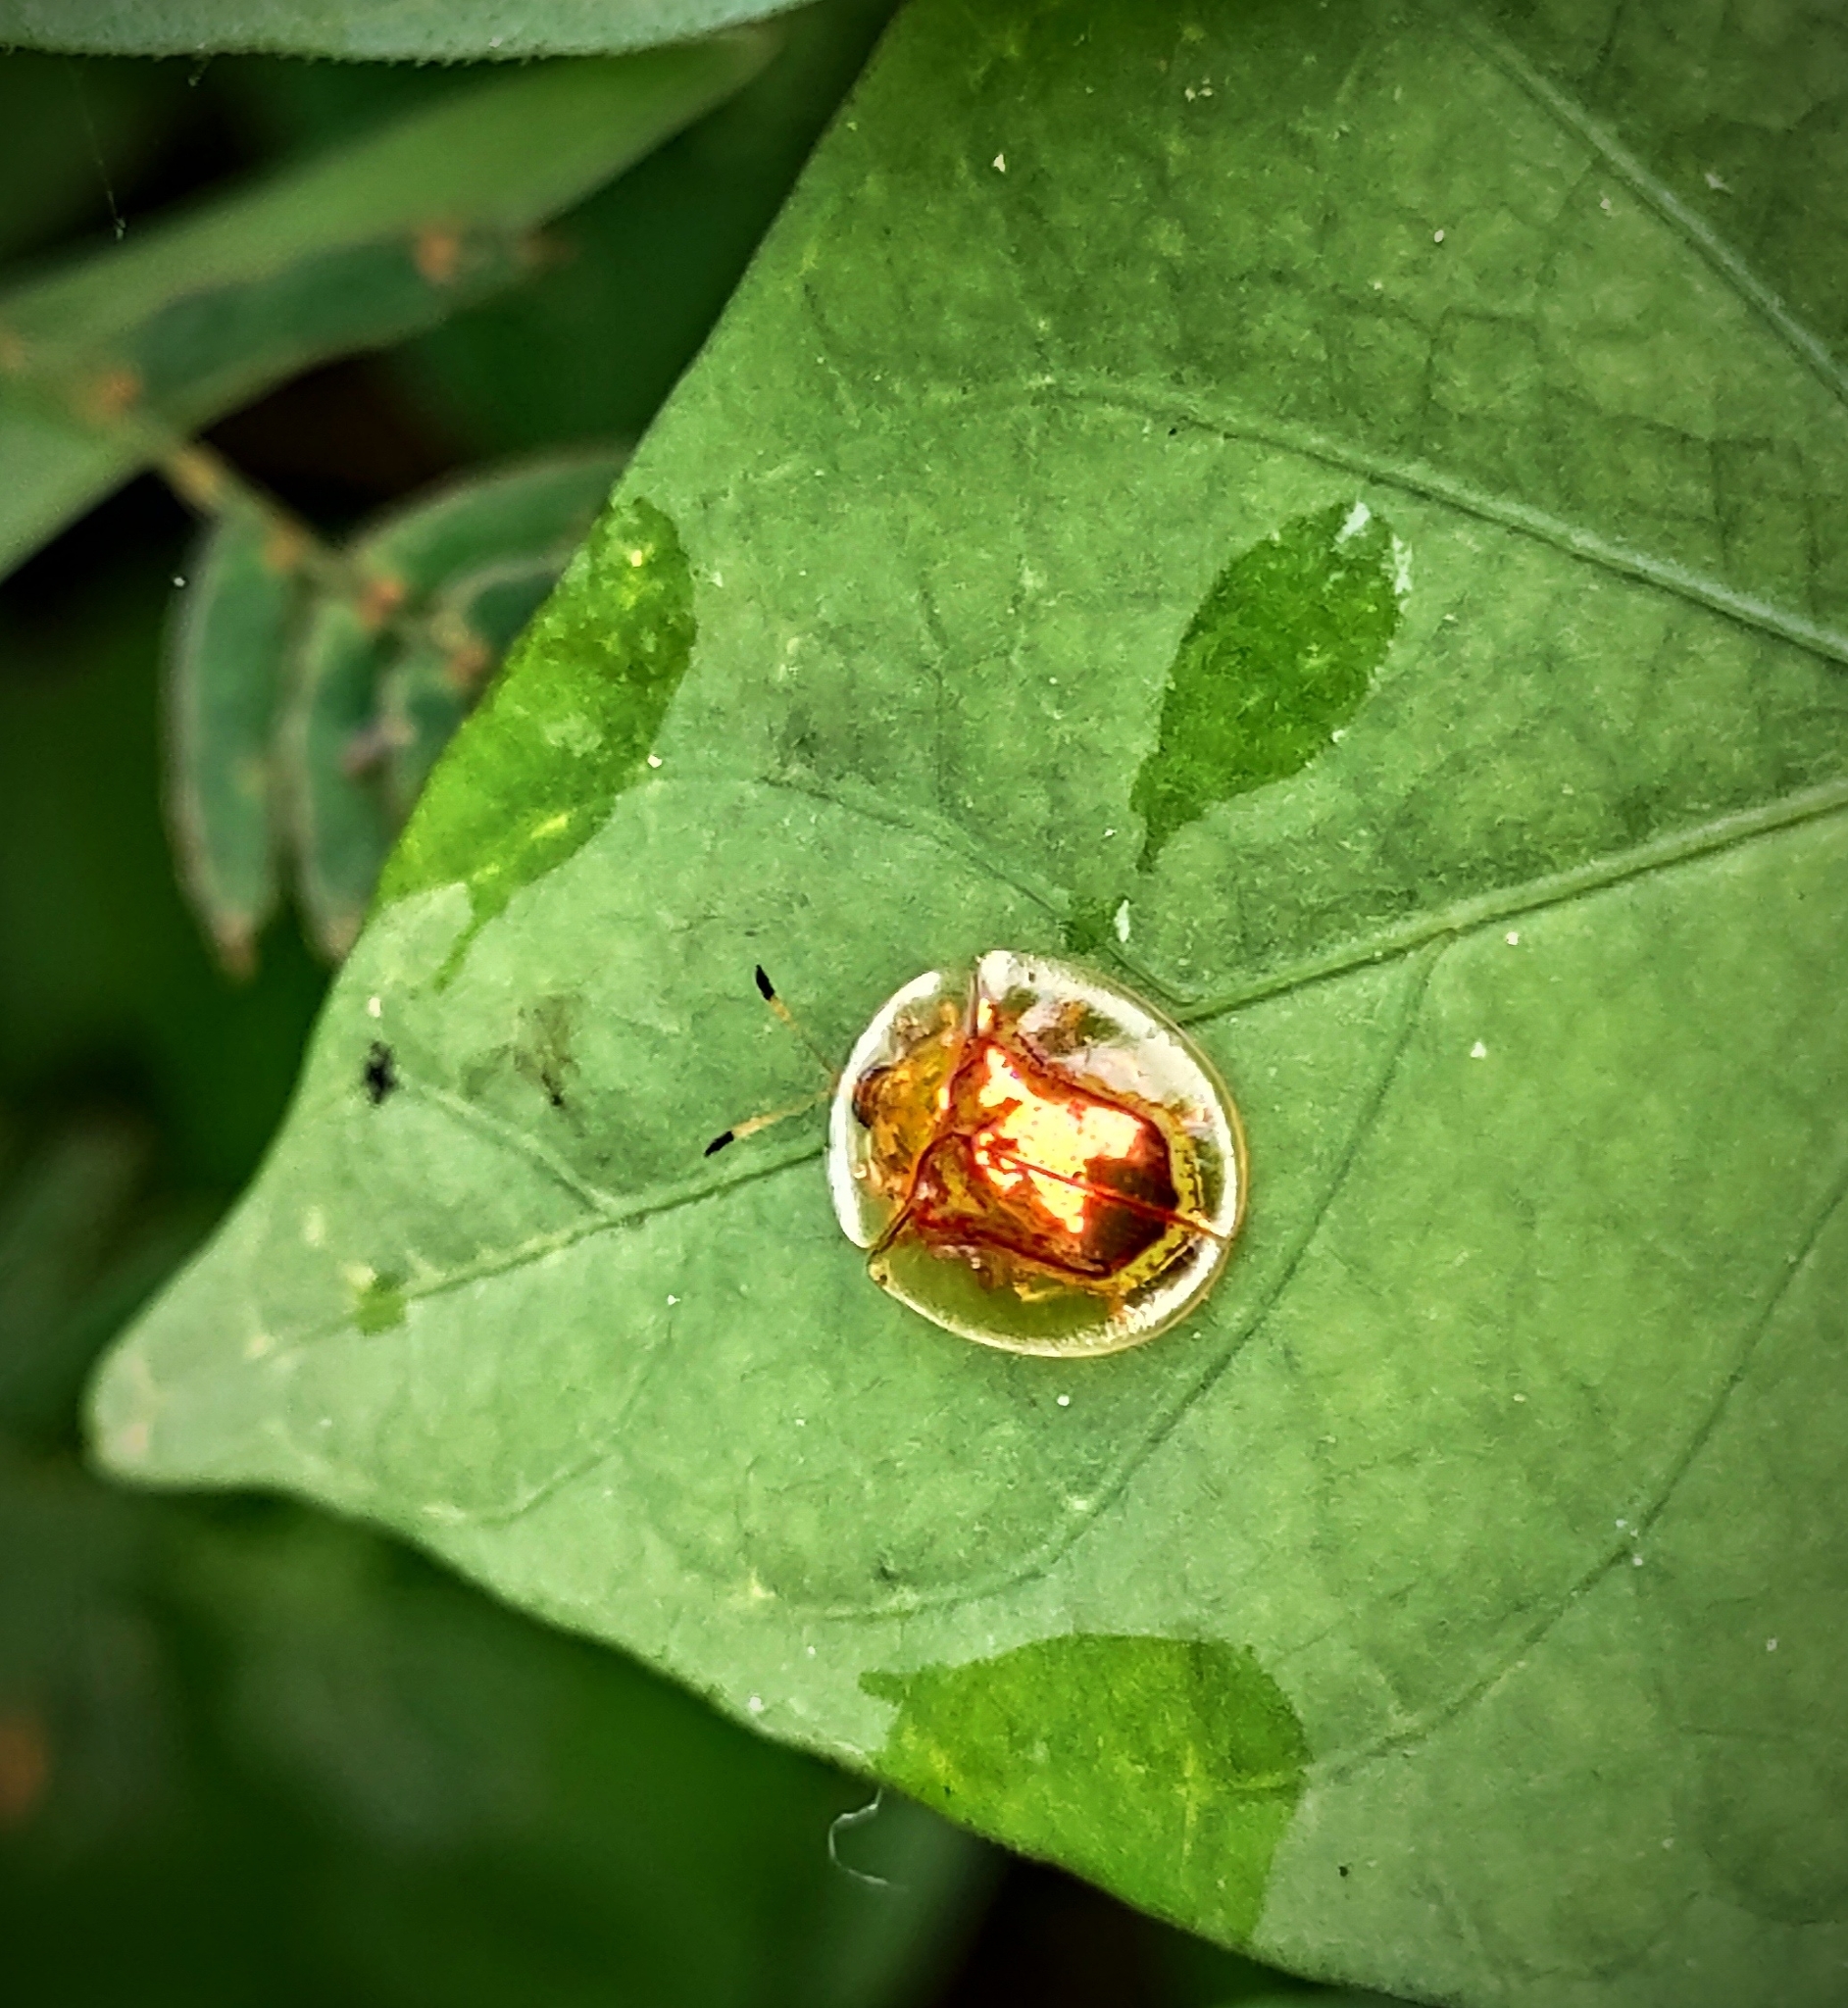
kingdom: Animalia
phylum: Arthropoda
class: Insecta
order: Coleoptera
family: Chrysomelidae
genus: Aspidimorpha
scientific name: Aspidimorpha furcata
